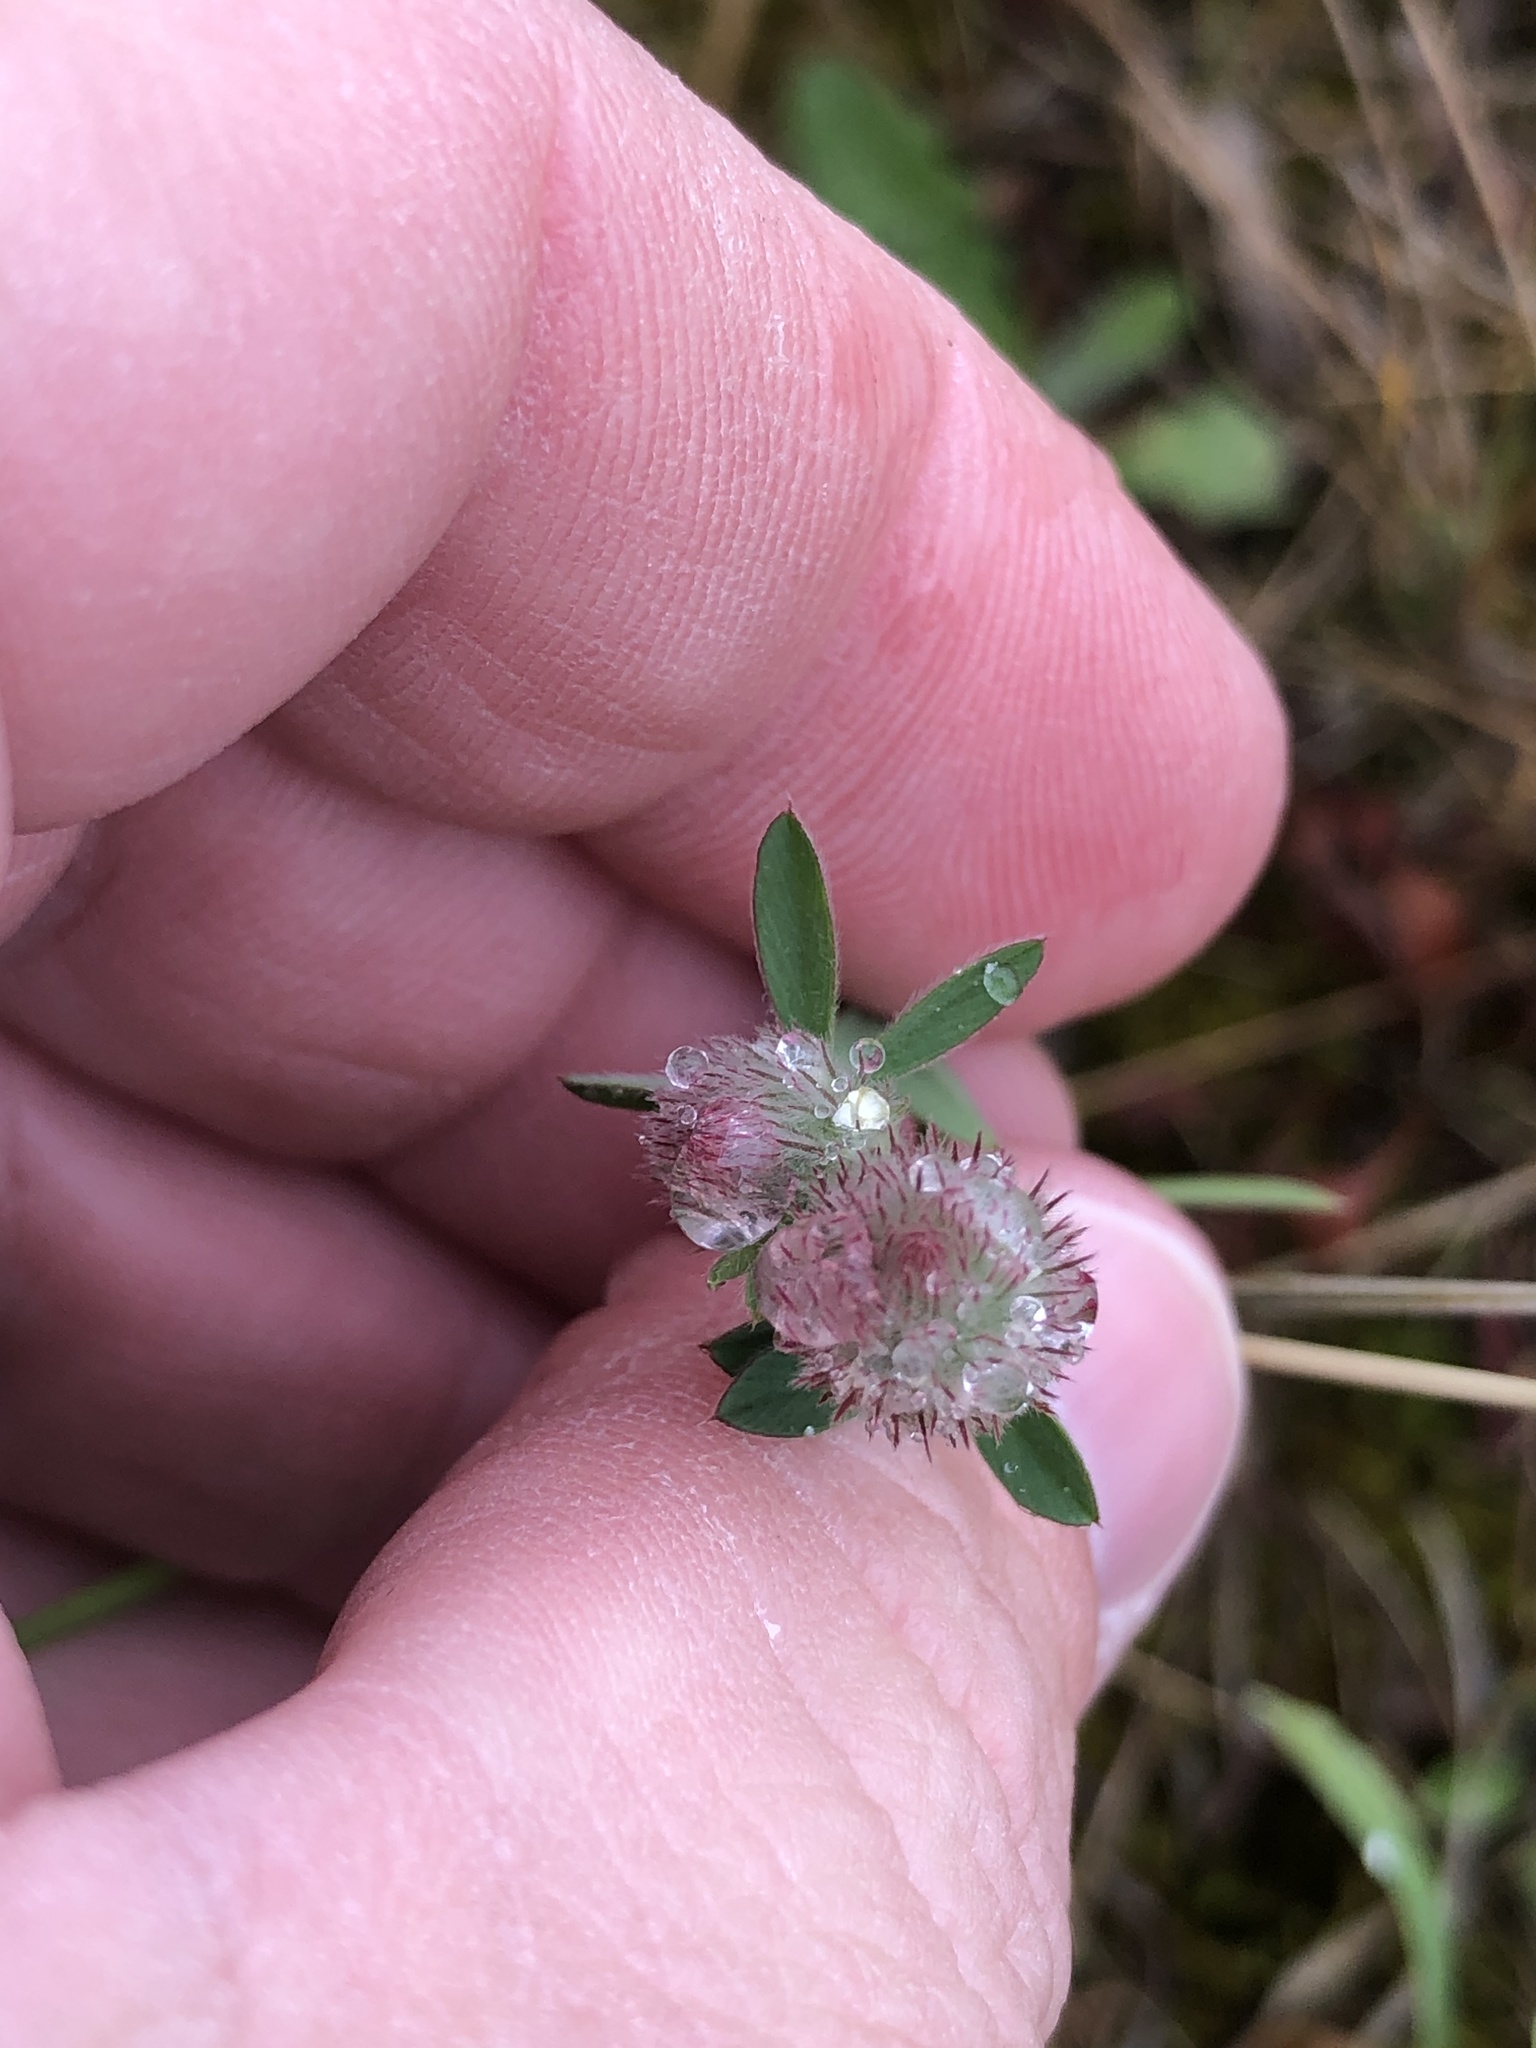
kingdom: Plantae
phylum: Tracheophyta
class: Magnoliopsida
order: Fabales
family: Fabaceae
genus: Trifolium
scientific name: Trifolium arvense
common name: Hare's-foot clover
